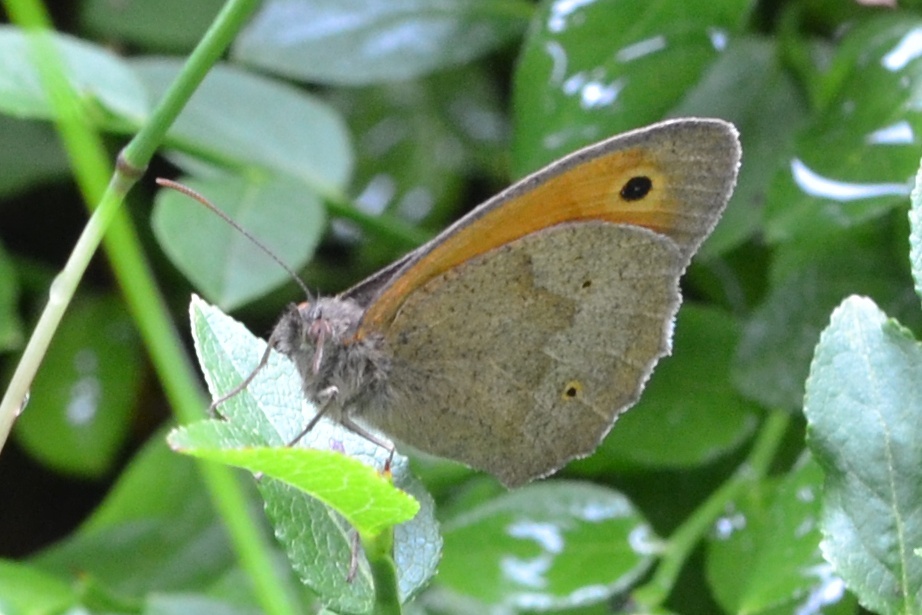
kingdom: Animalia
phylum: Arthropoda
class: Insecta
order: Lepidoptera
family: Nymphalidae
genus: Maniola
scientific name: Maniola jurtina
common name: Meadow brown
